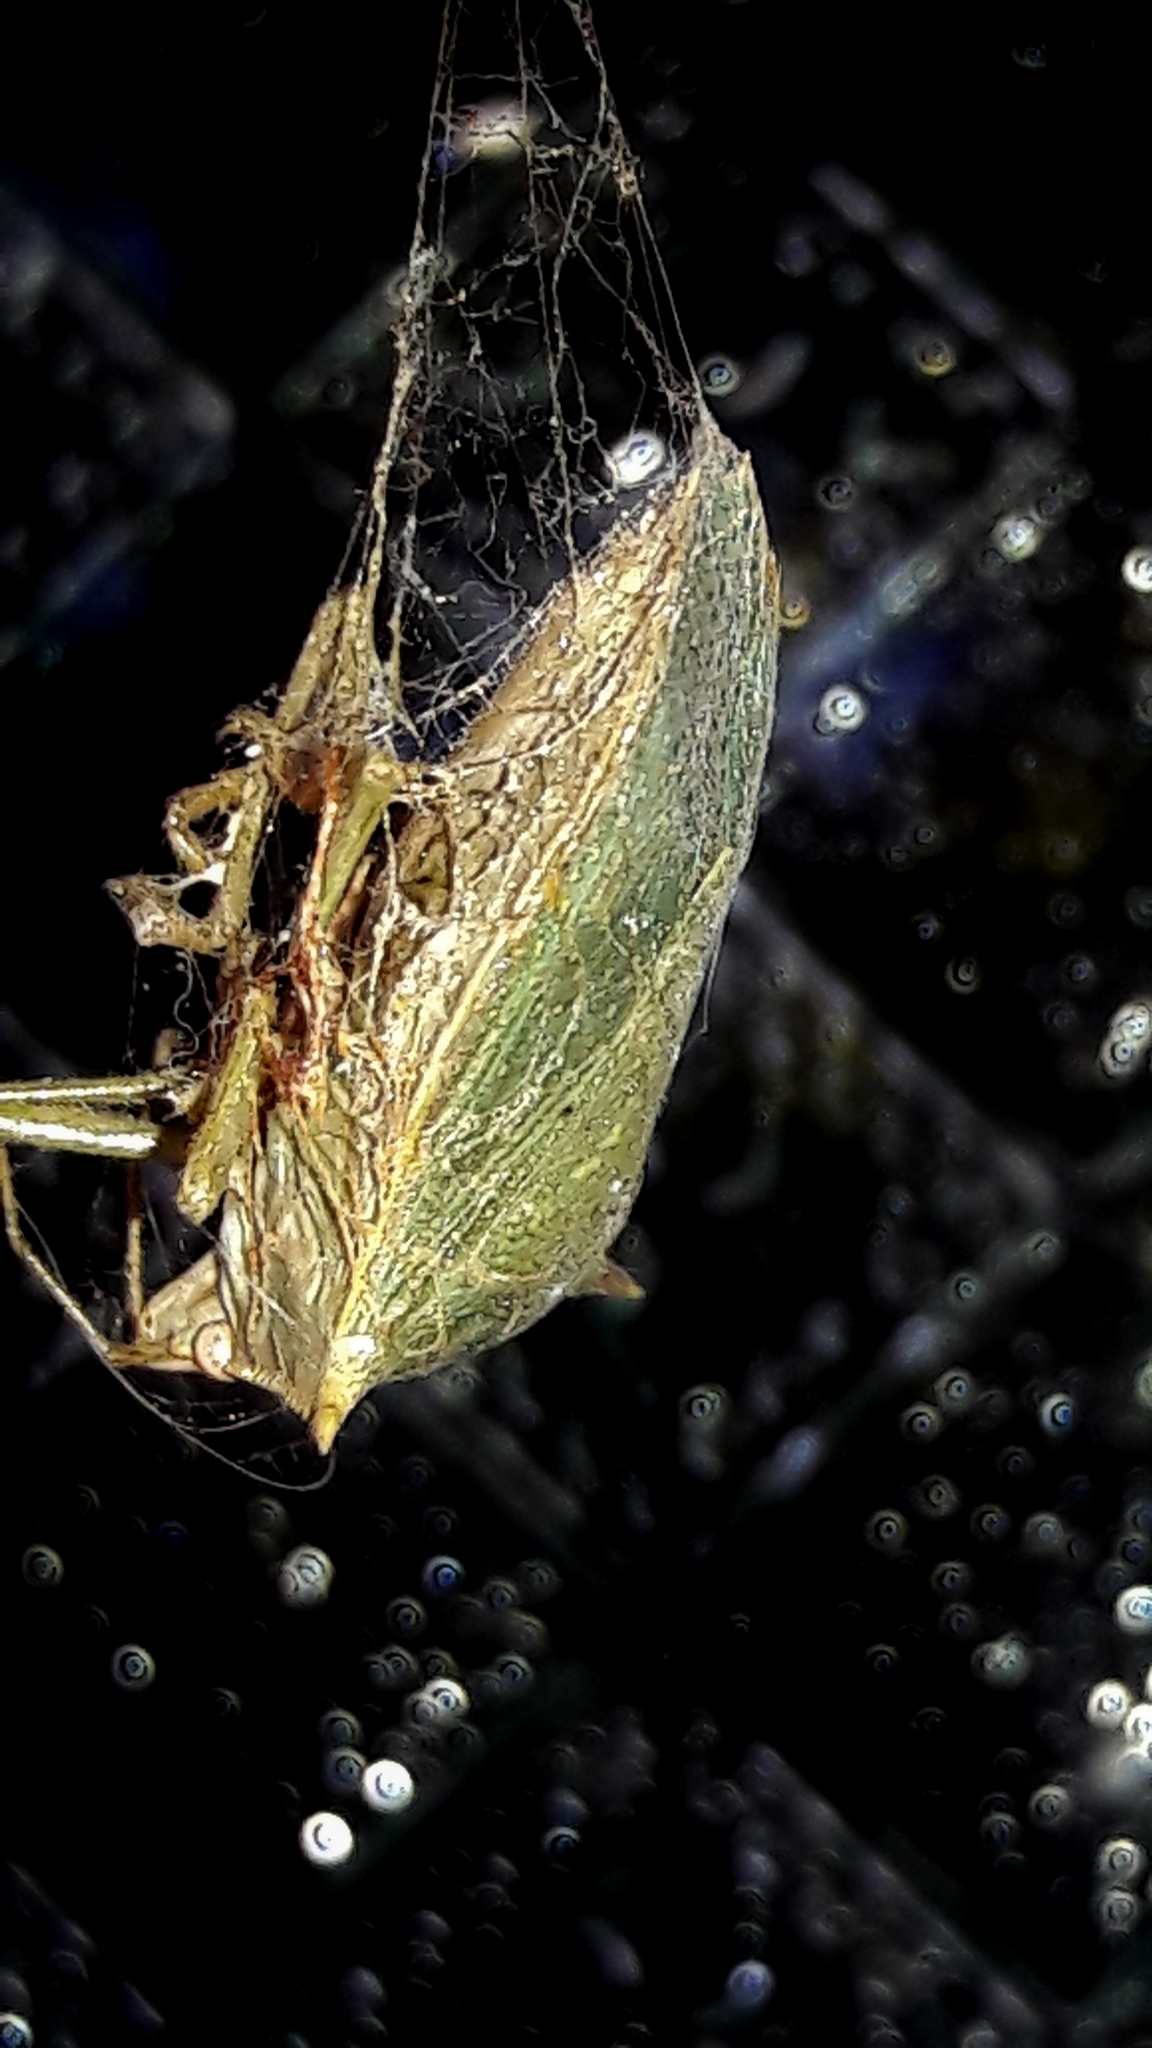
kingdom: Animalia
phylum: Arthropoda
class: Insecta
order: Hemiptera
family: Pentatomidae
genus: Loxa
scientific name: Loxa viridis
